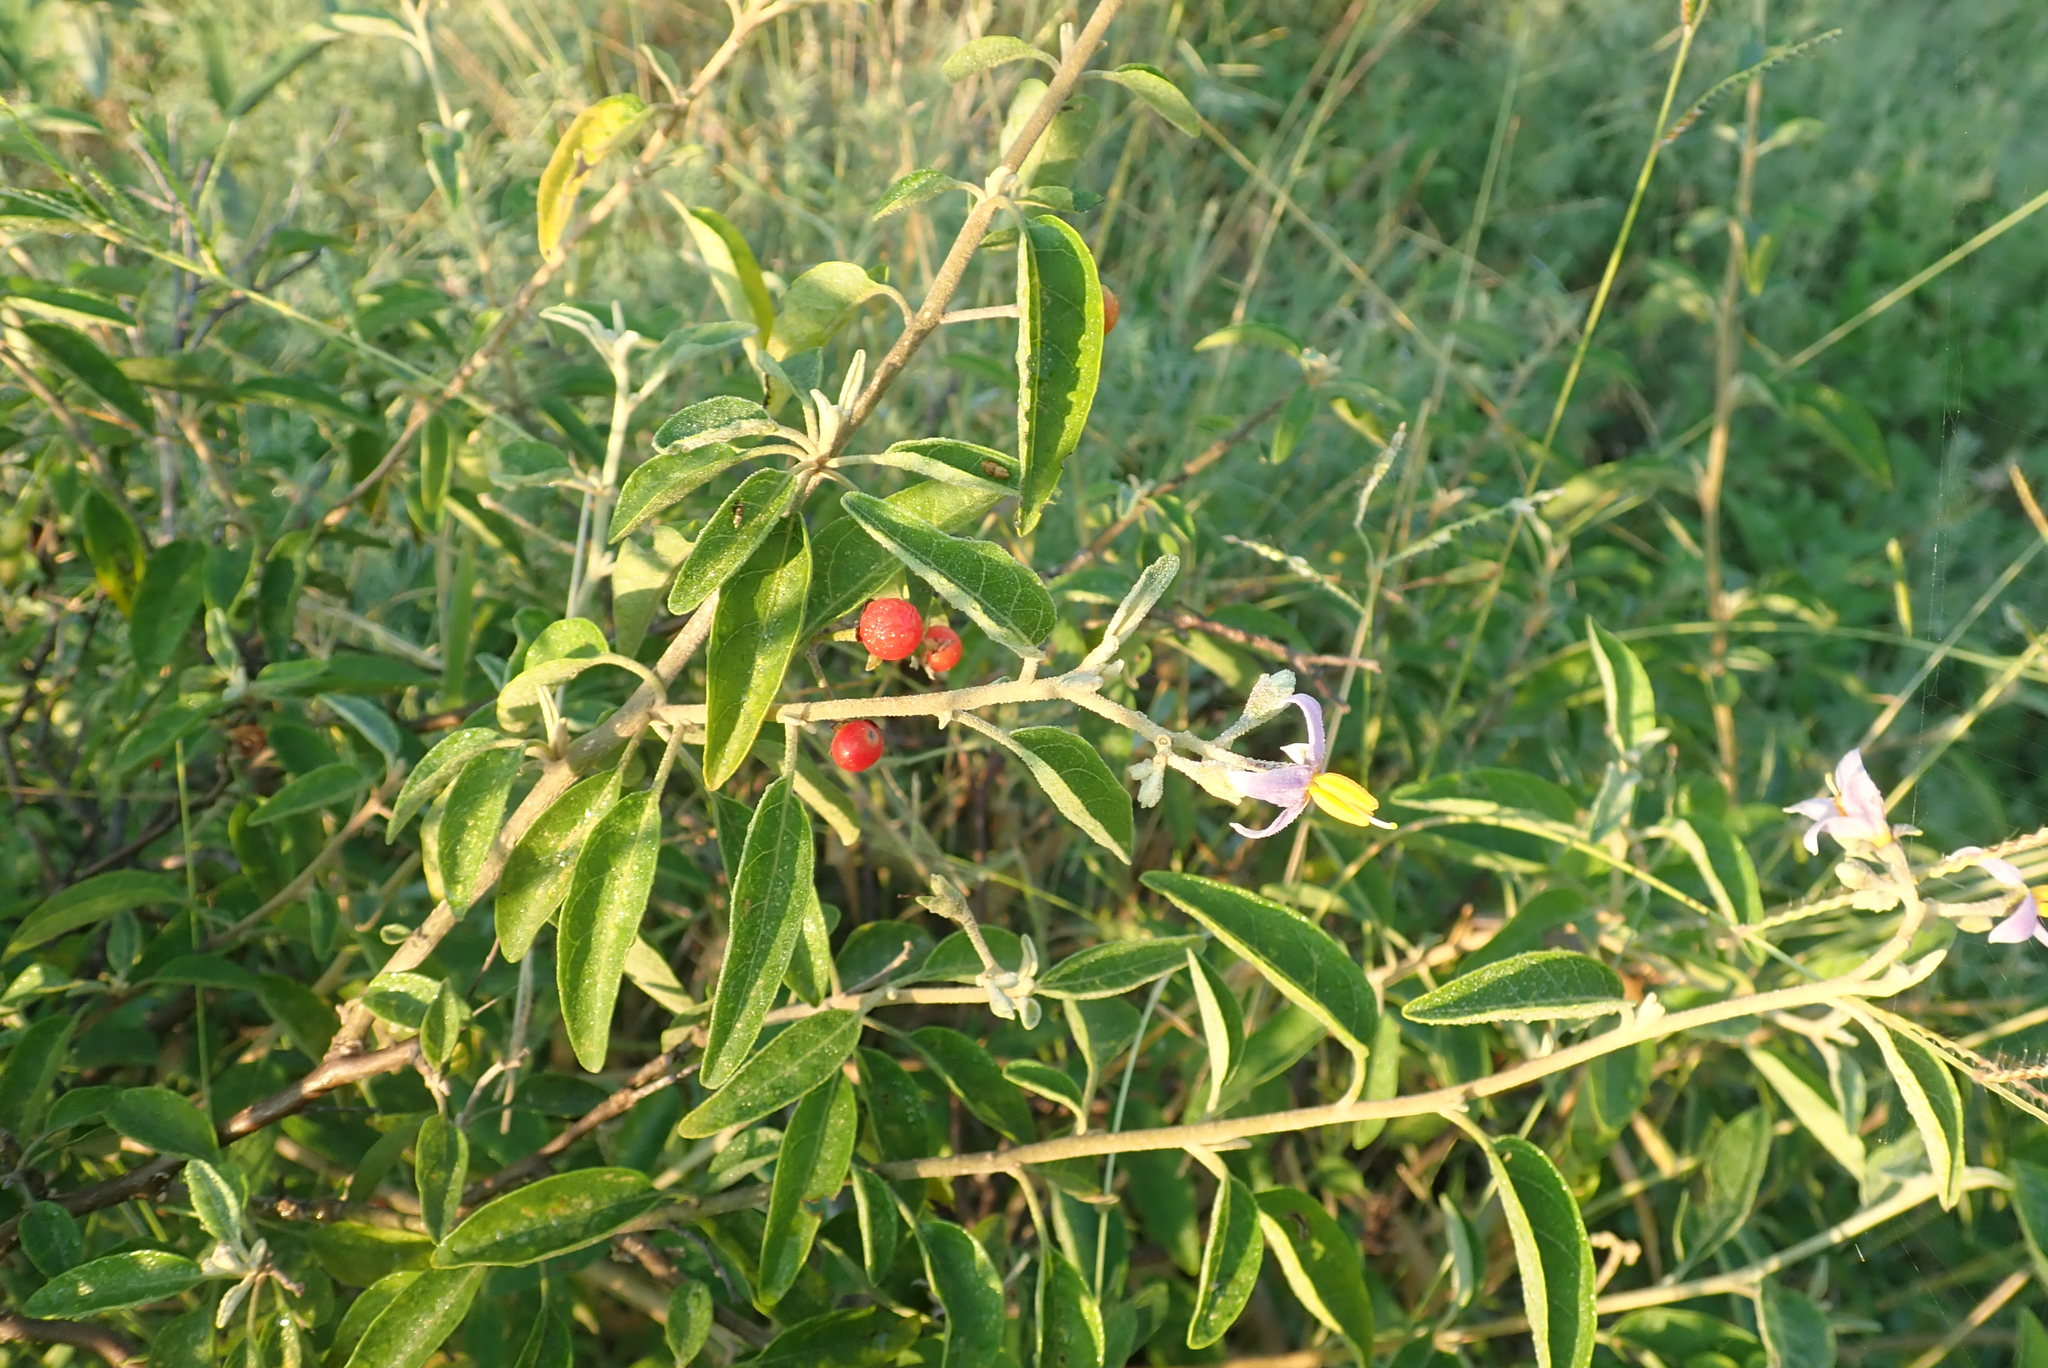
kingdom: Plantae
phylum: Tracheophyta
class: Magnoliopsida
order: Solanales
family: Solanaceae
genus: Solanum
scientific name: Solanum tettense
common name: Mozambique bitter apple
